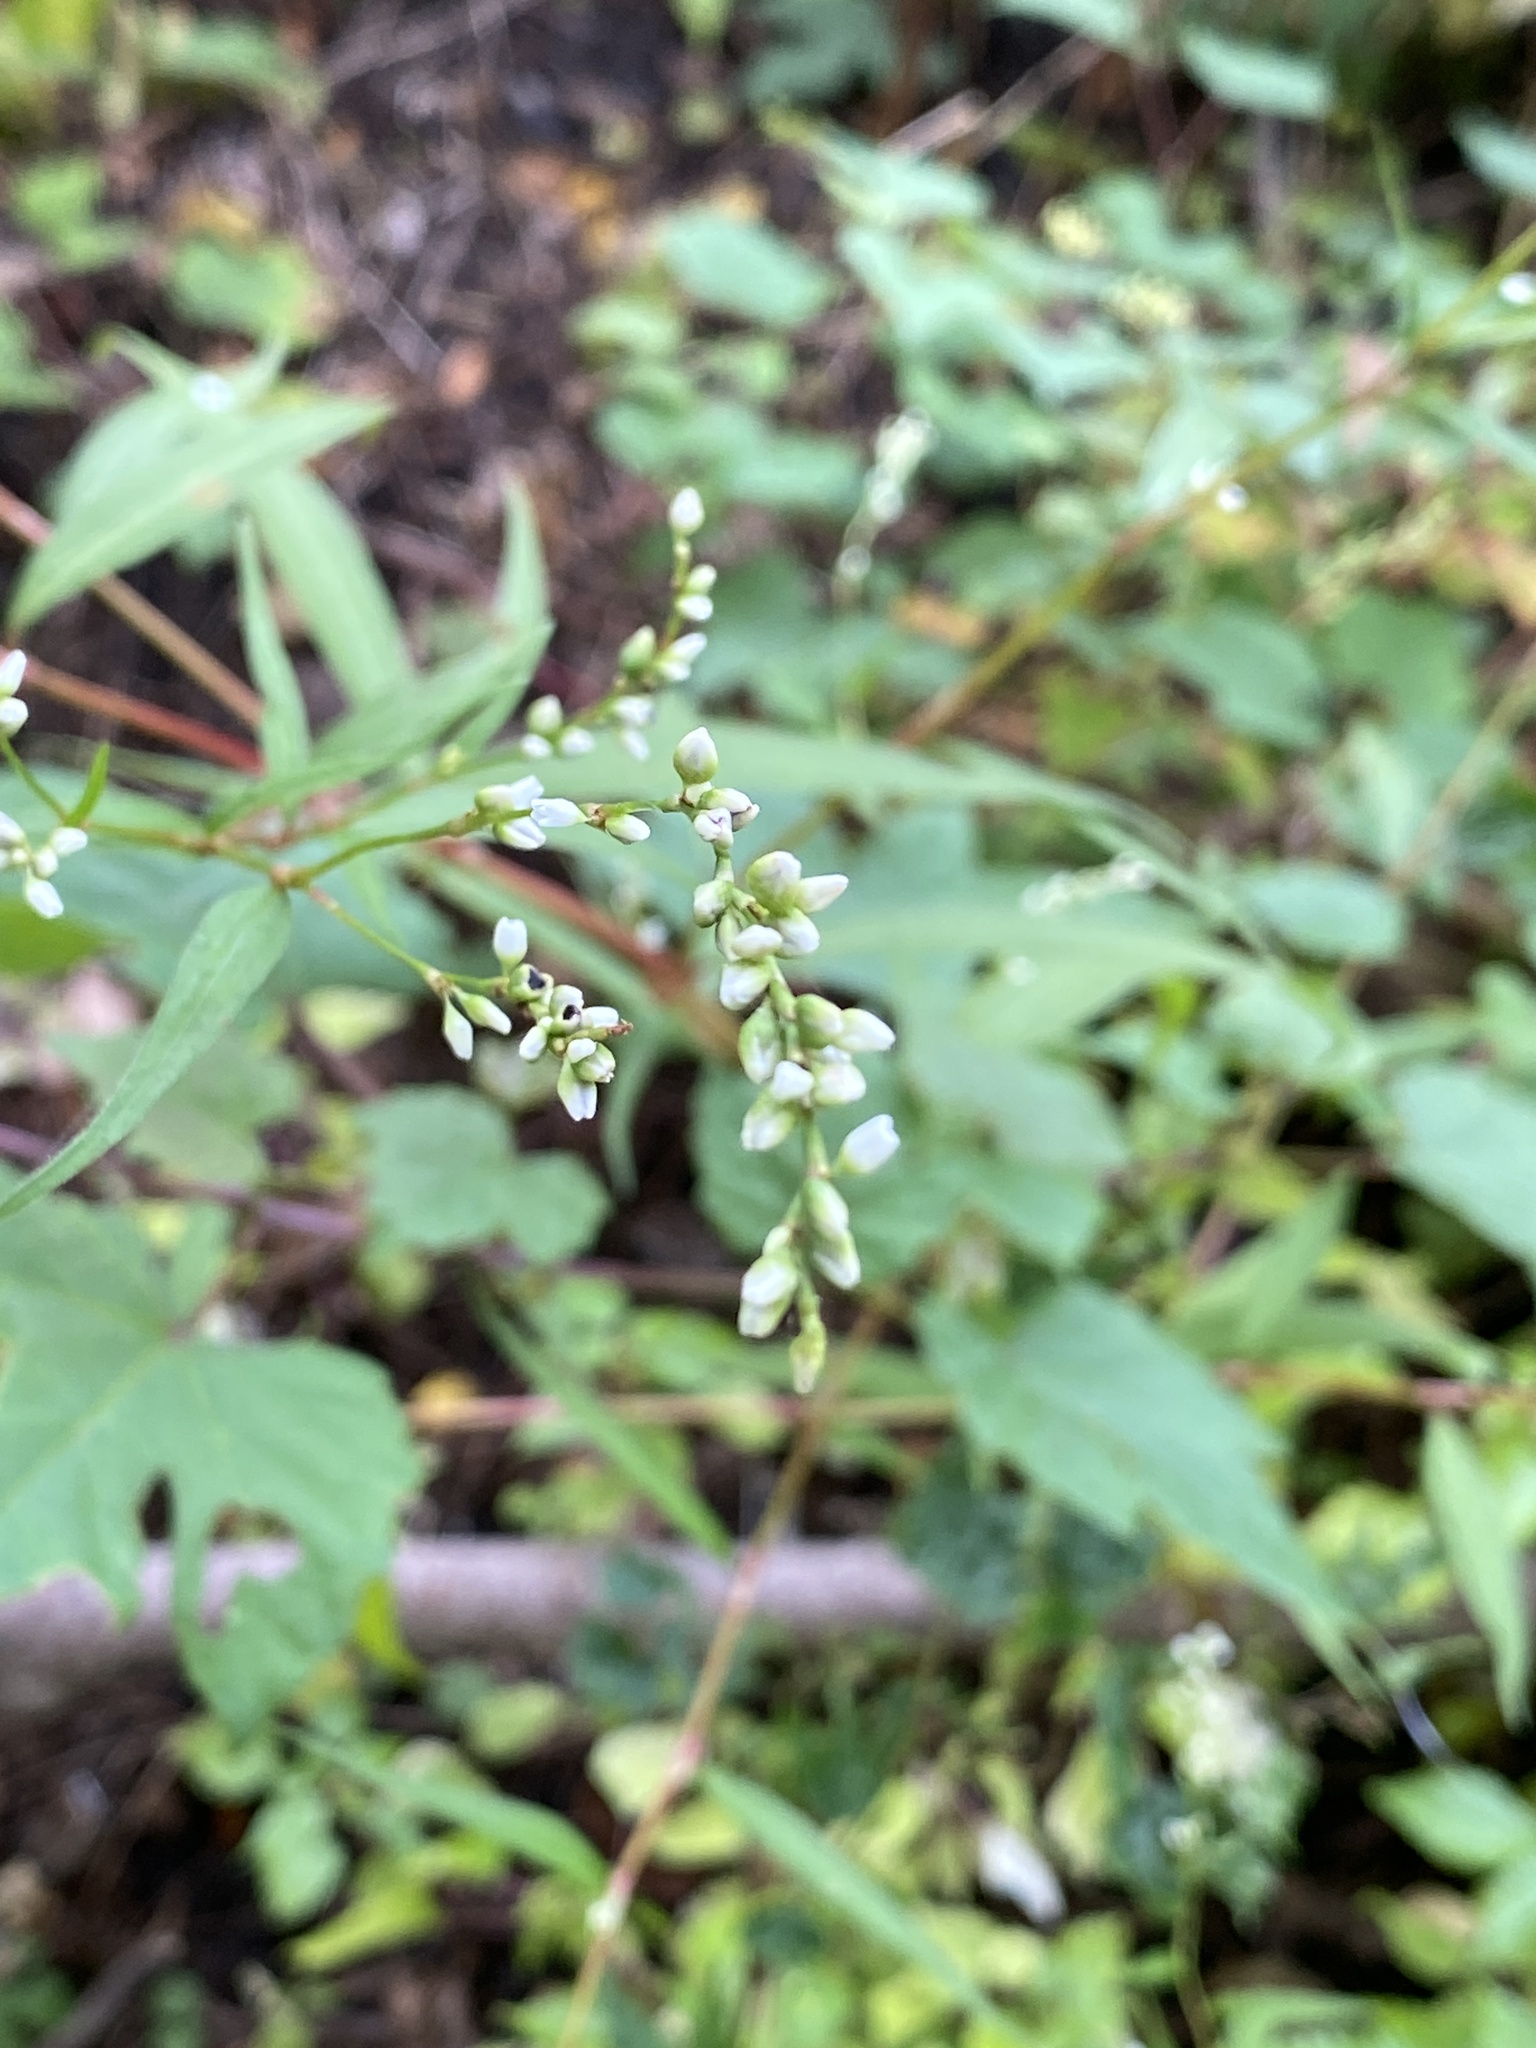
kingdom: Plantae
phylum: Tracheophyta
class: Magnoliopsida
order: Caryophyllales
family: Polygonaceae
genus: Persicaria
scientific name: Persicaria punctata
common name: Dotted smartweed
